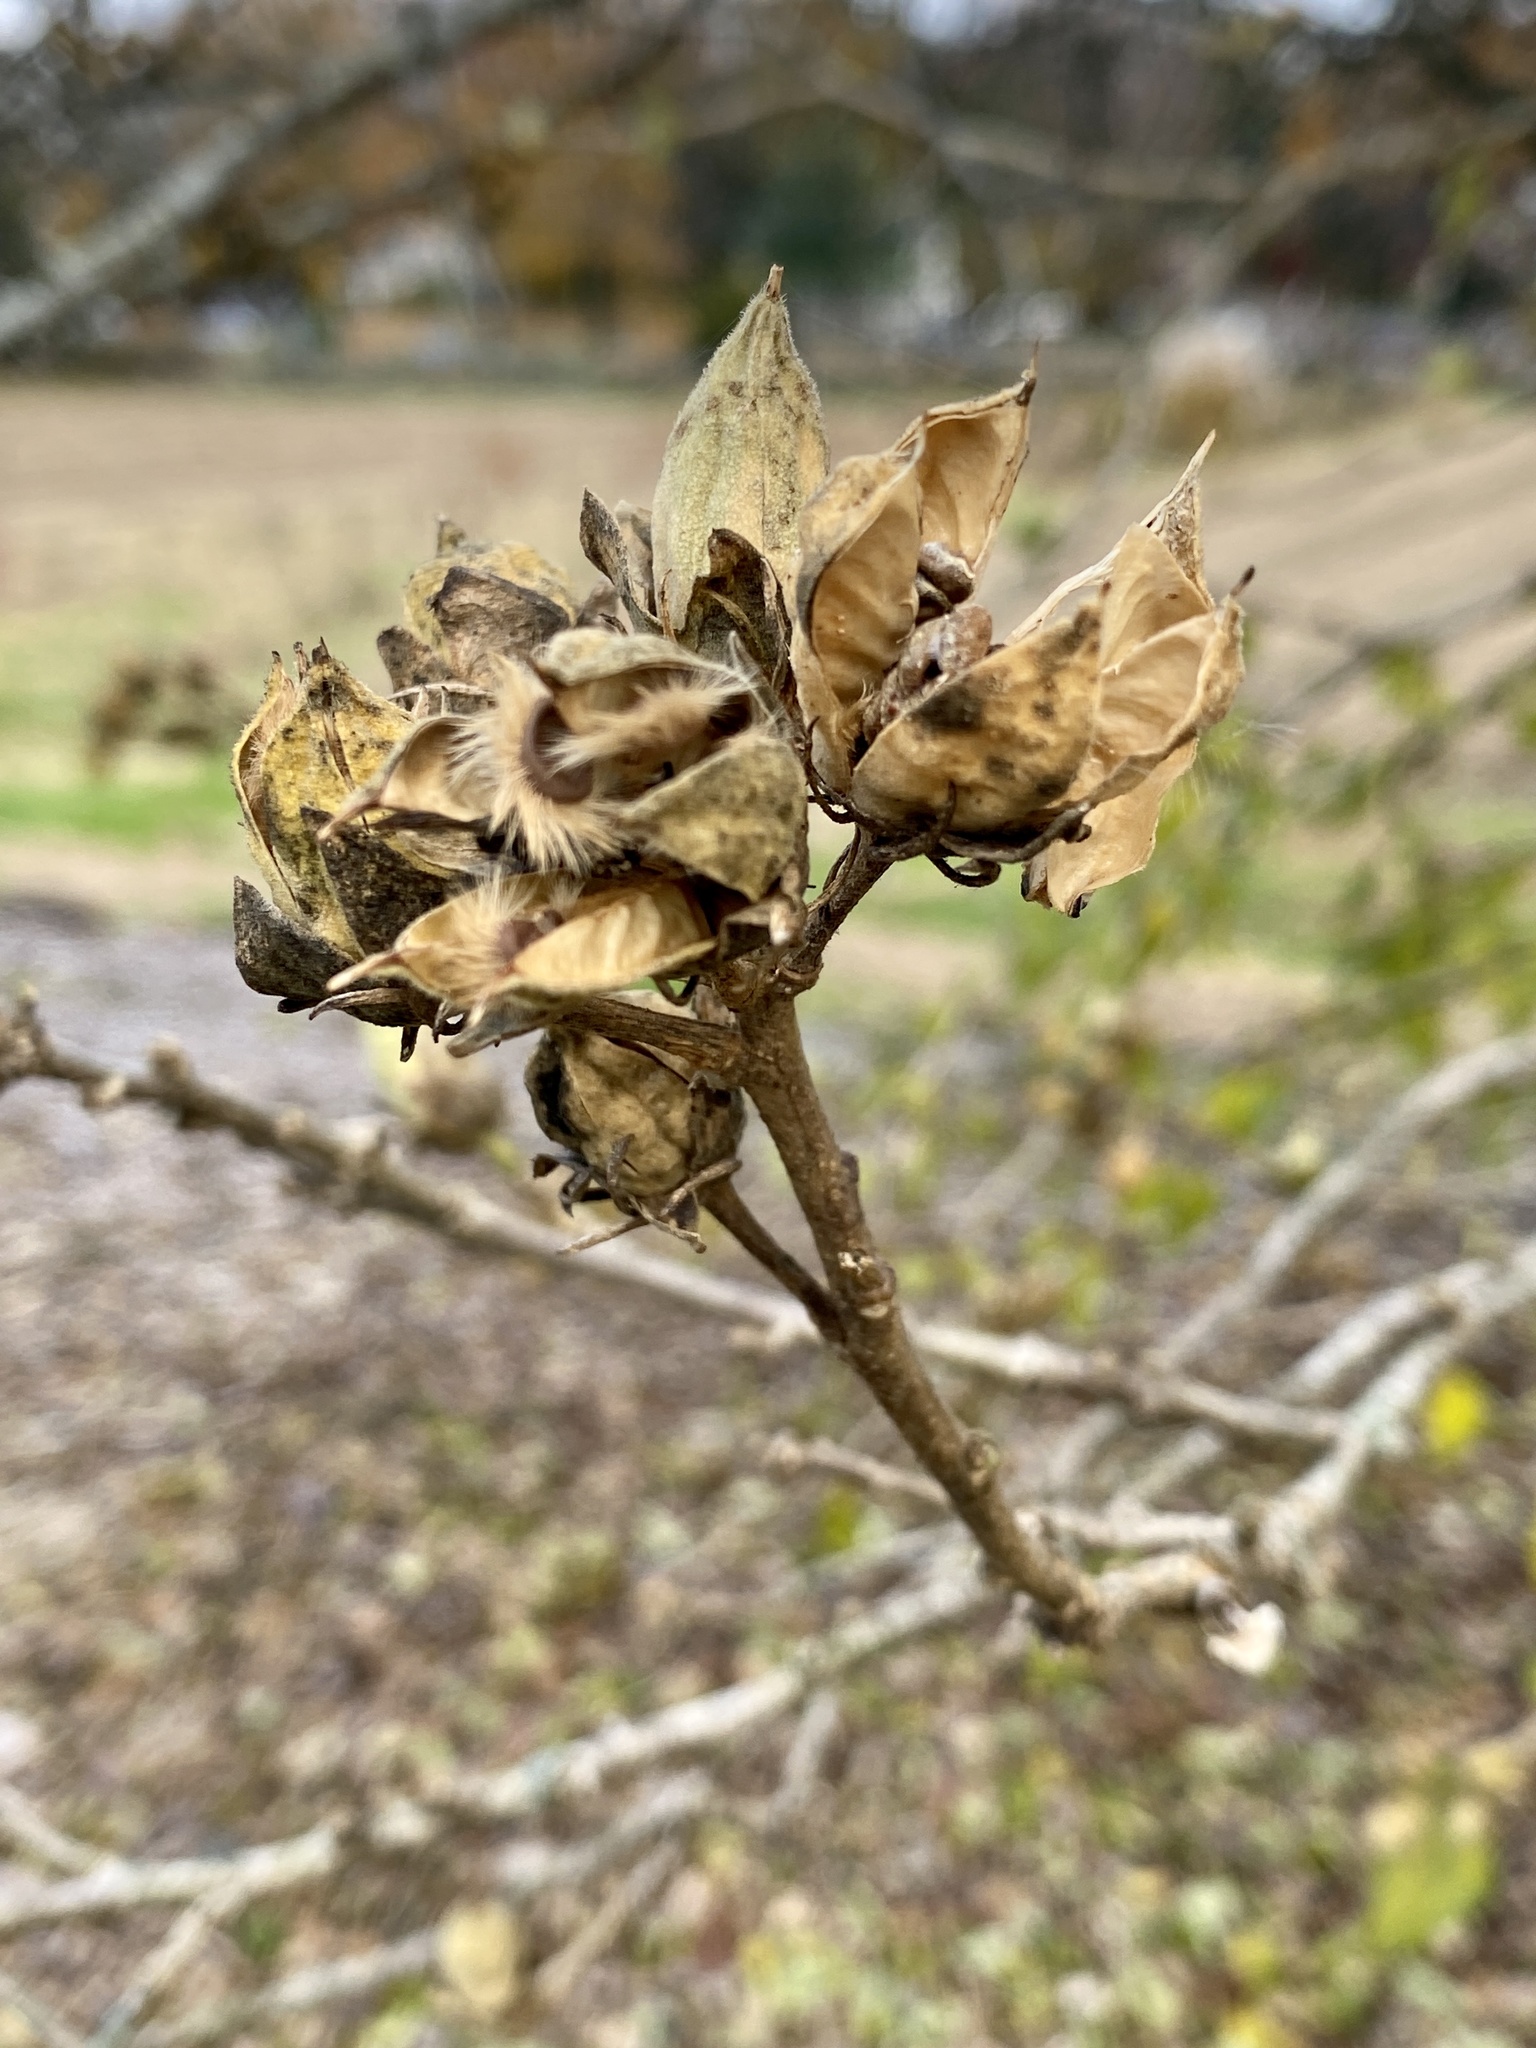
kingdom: Plantae
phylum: Tracheophyta
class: Magnoliopsida
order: Malvales
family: Malvaceae
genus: Hibiscus
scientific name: Hibiscus syriacus
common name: Syrian ketmia
